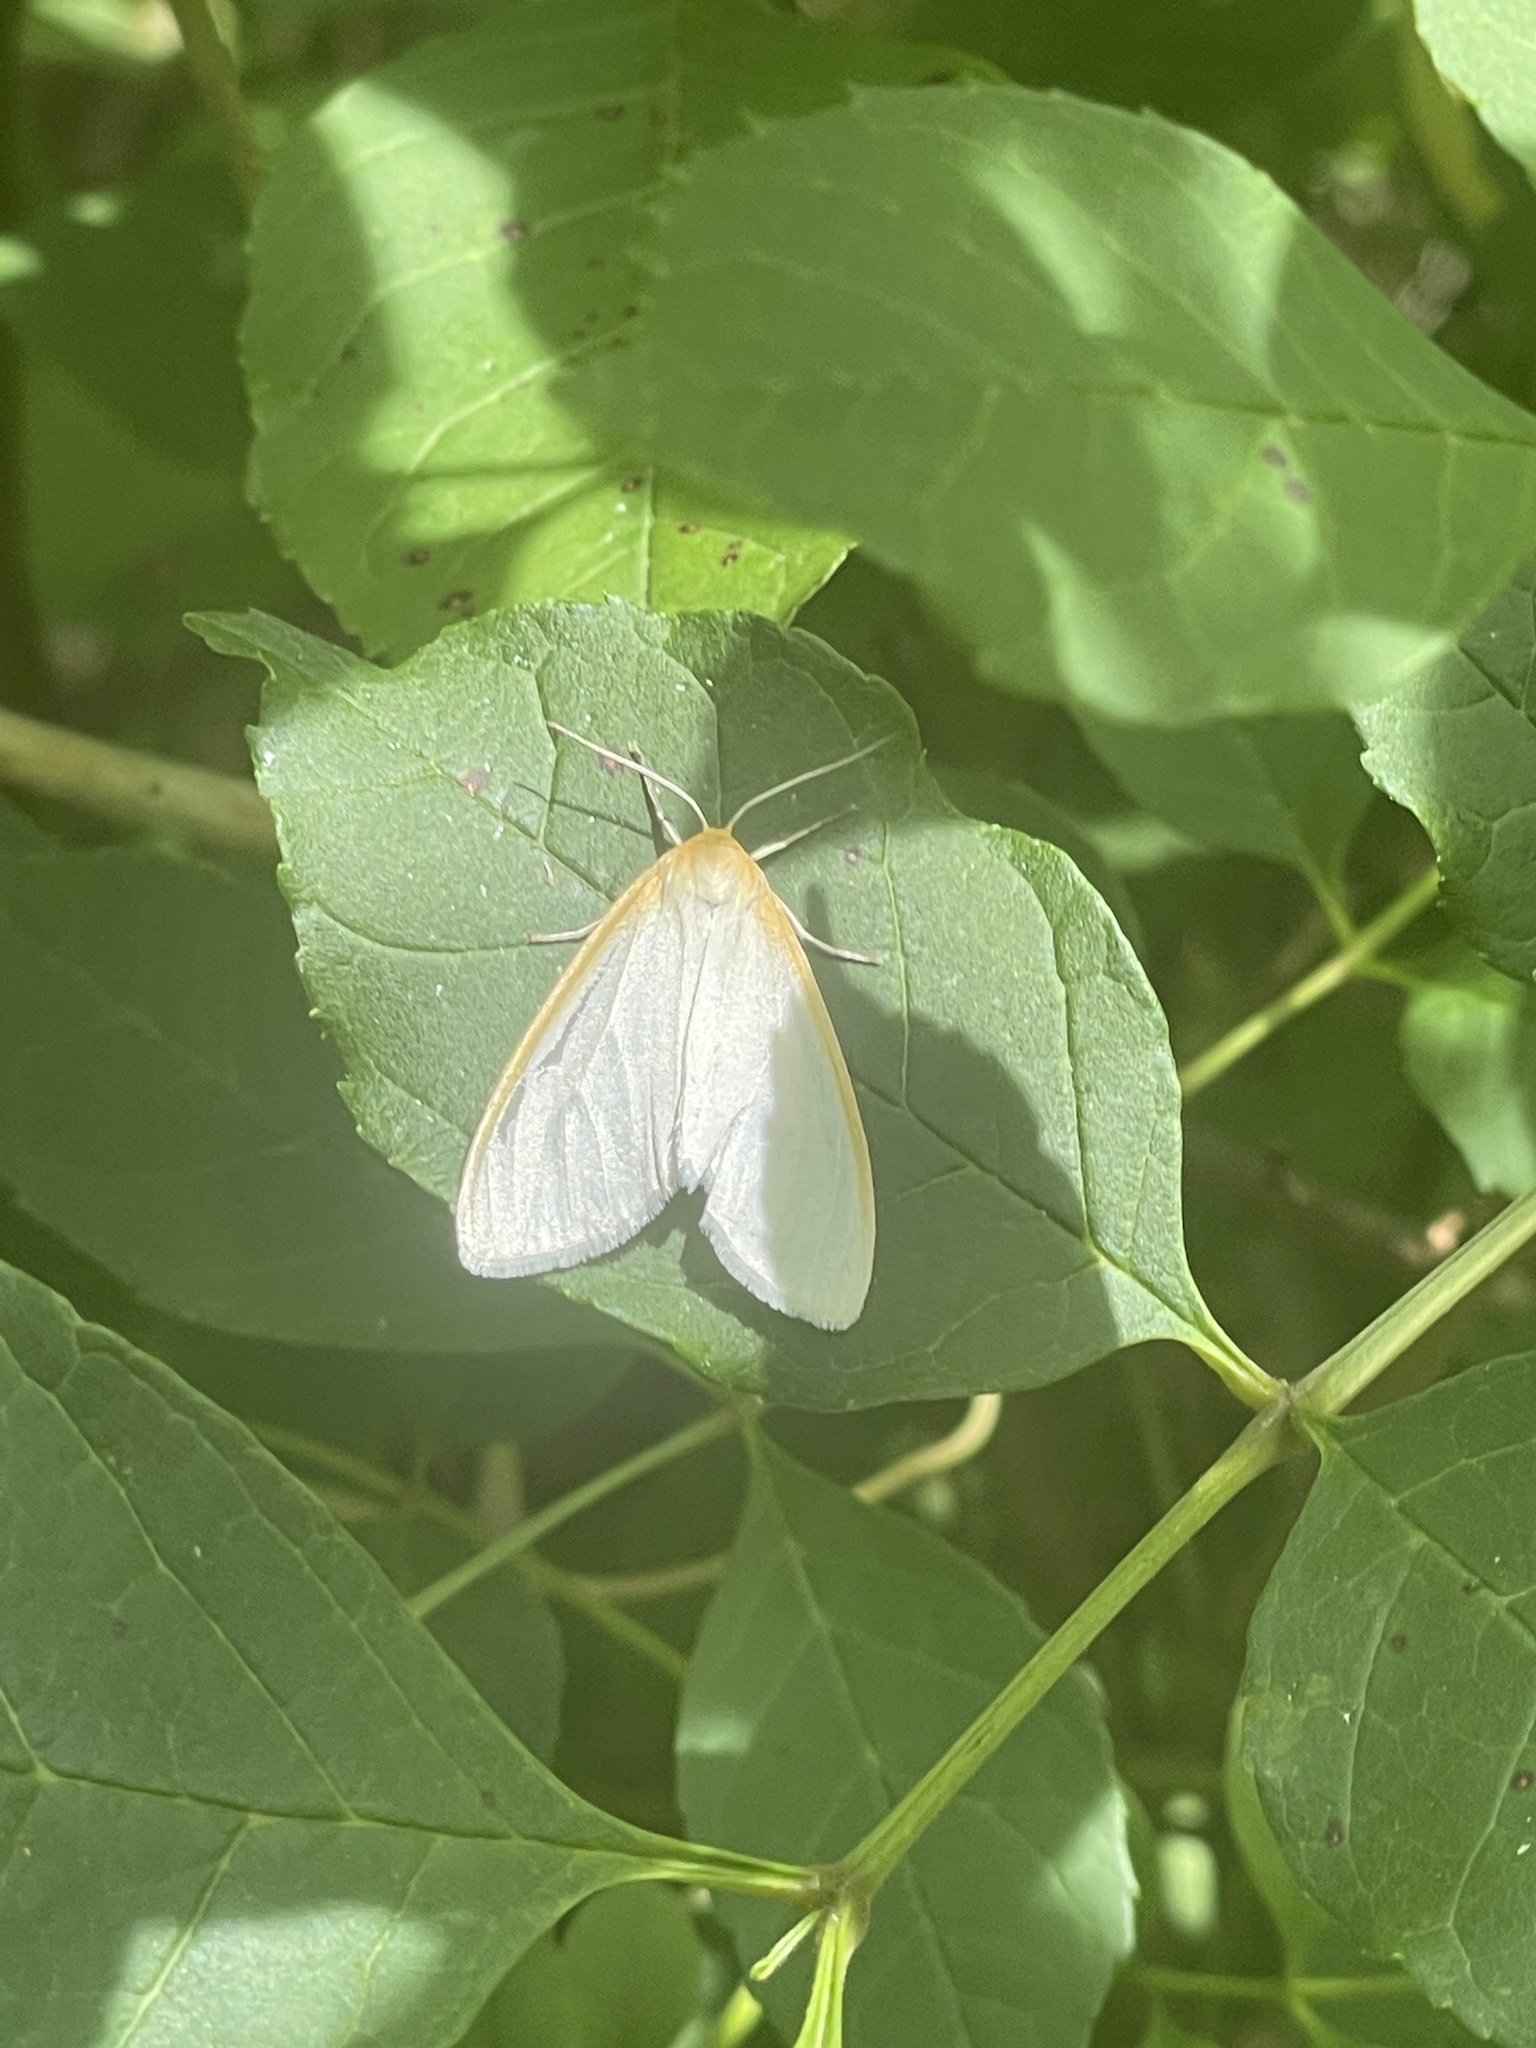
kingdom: Animalia
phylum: Arthropoda
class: Insecta
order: Lepidoptera
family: Erebidae
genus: Cycnia
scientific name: Cycnia tenera
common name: Delicate cycnia moth
